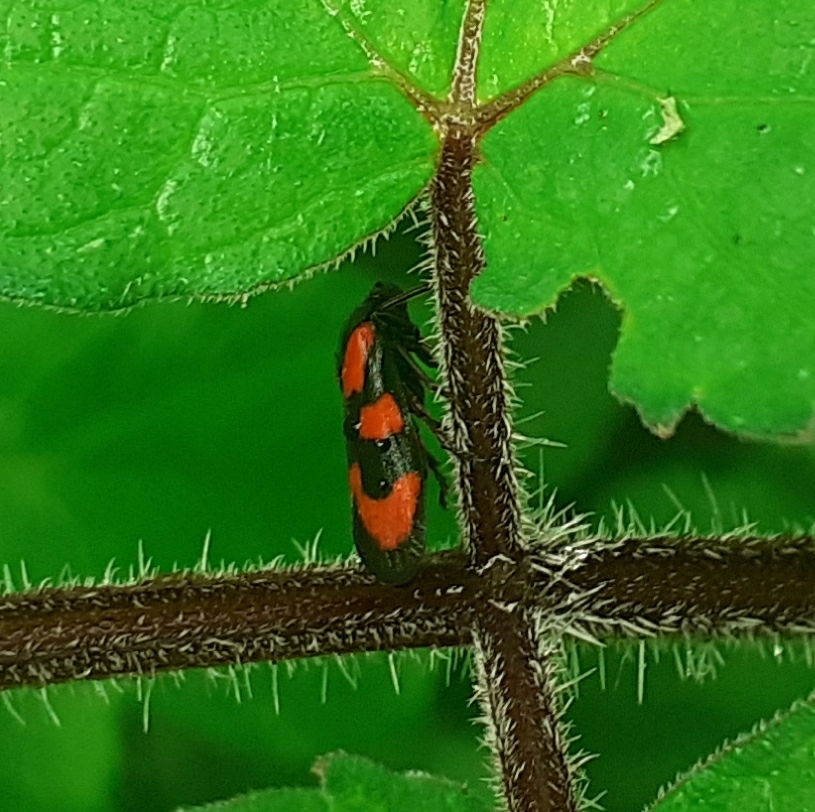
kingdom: Animalia
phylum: Arthropoda
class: Insecta
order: Hemiptera
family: Cercopidae
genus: Cercopis
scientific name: Cercopis vulnerata
